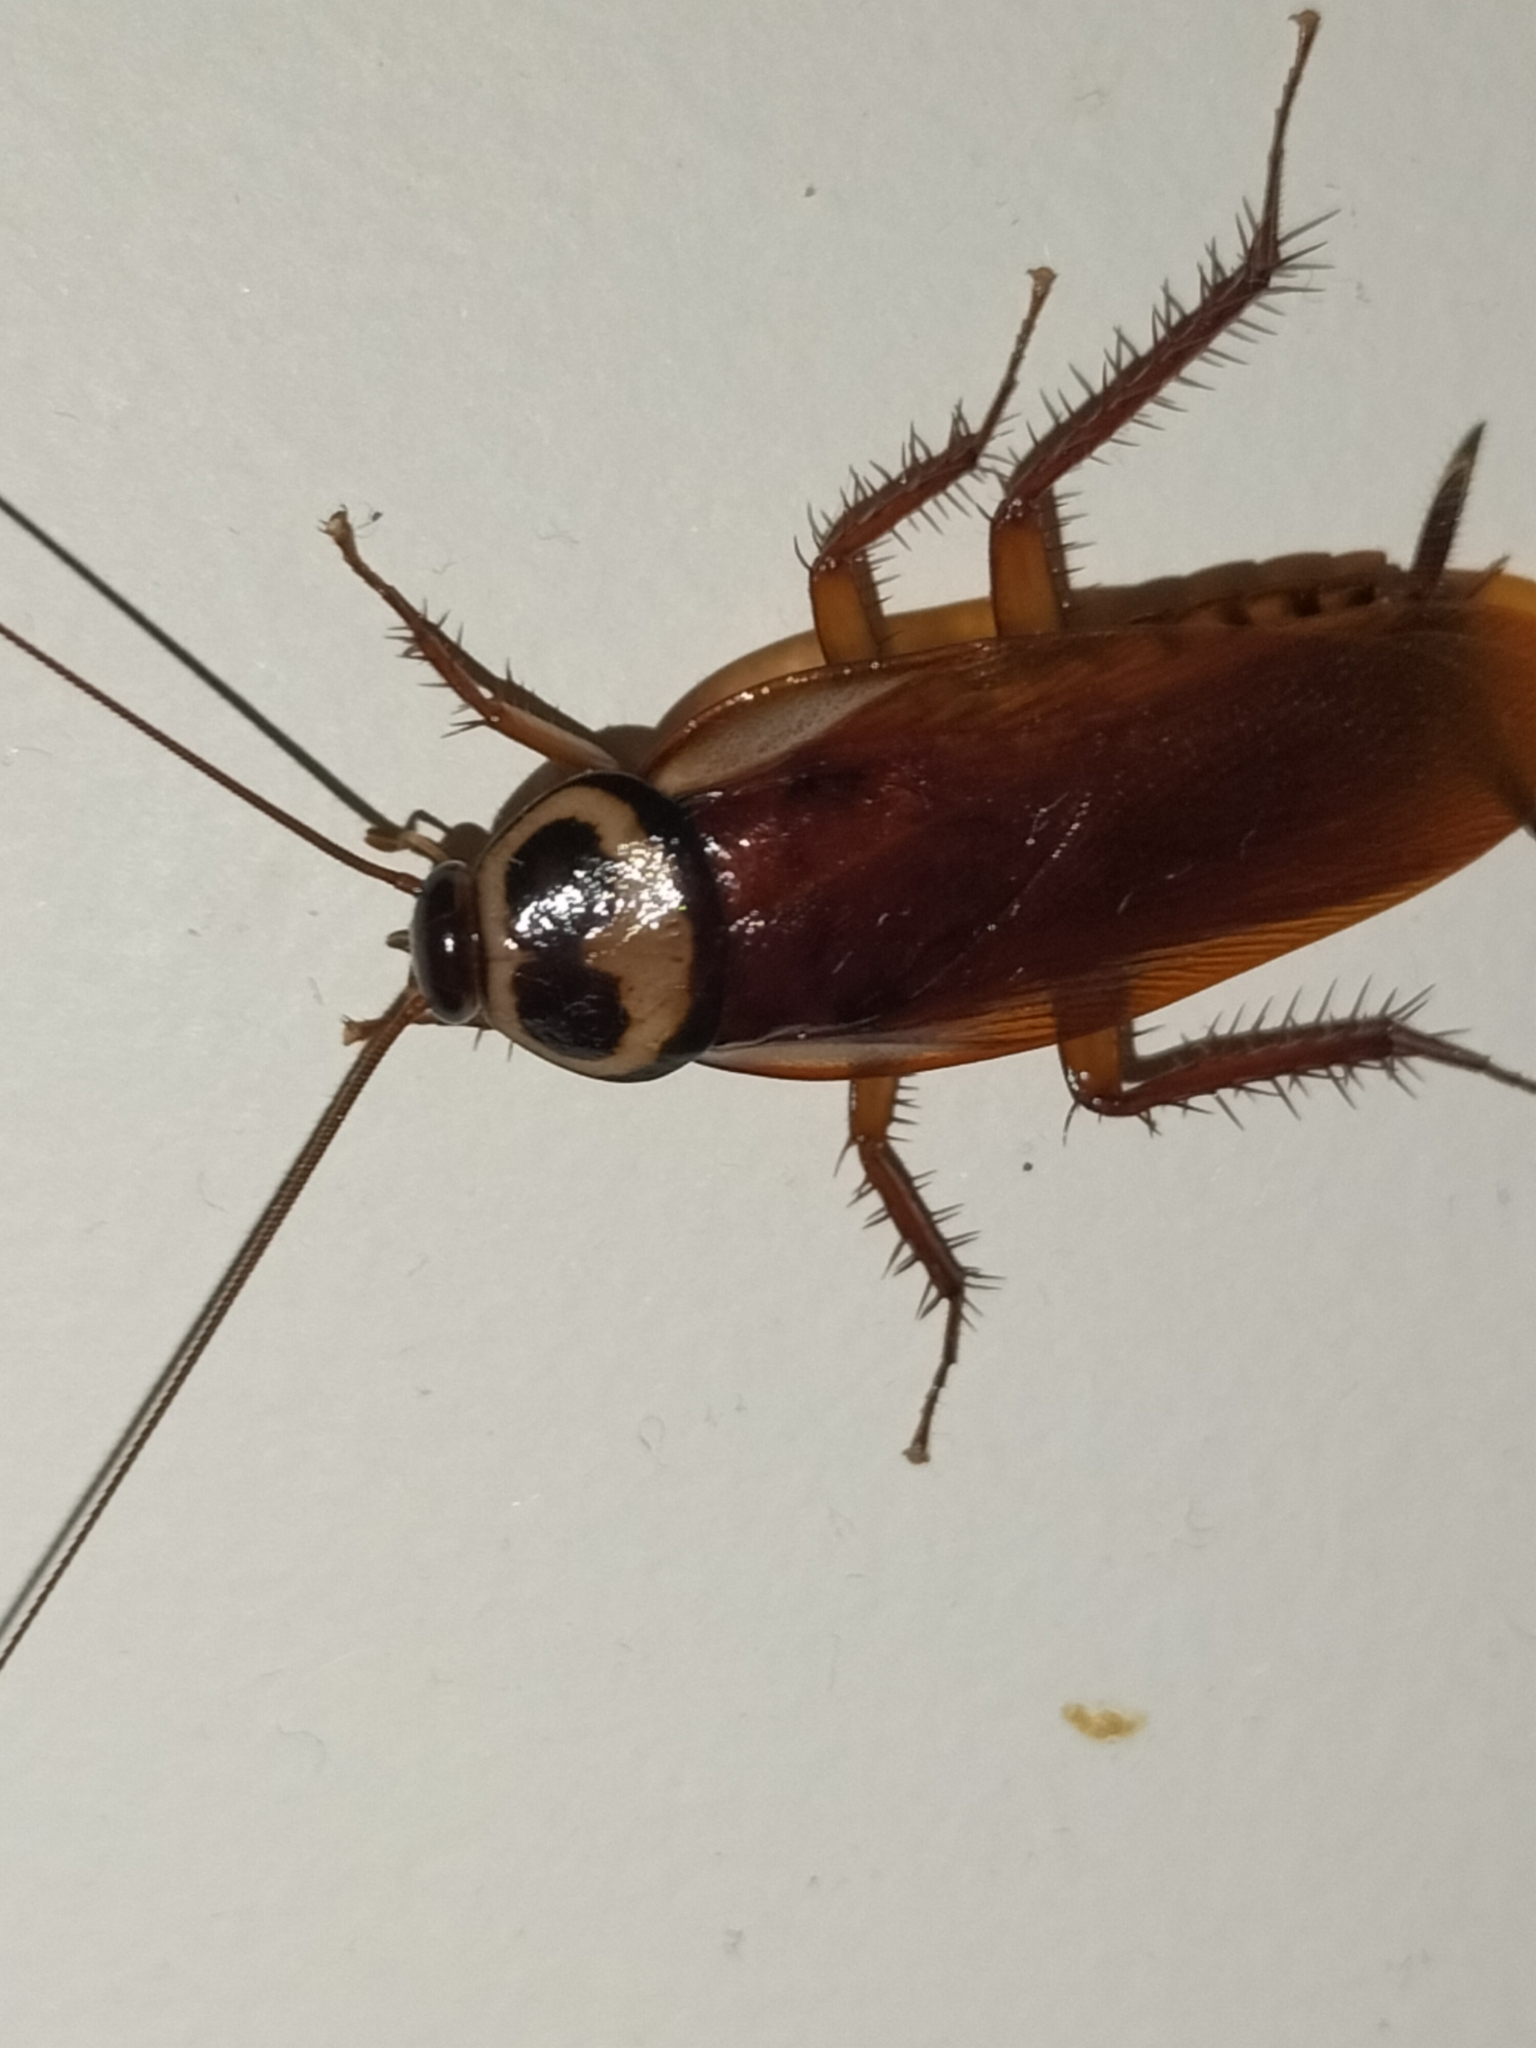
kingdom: Animalia
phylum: Arthropoda
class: Insecta
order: Blattodea
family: Blattidae
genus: Periplaneta
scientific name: Periplaneta australasiae
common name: Australian cockroach
